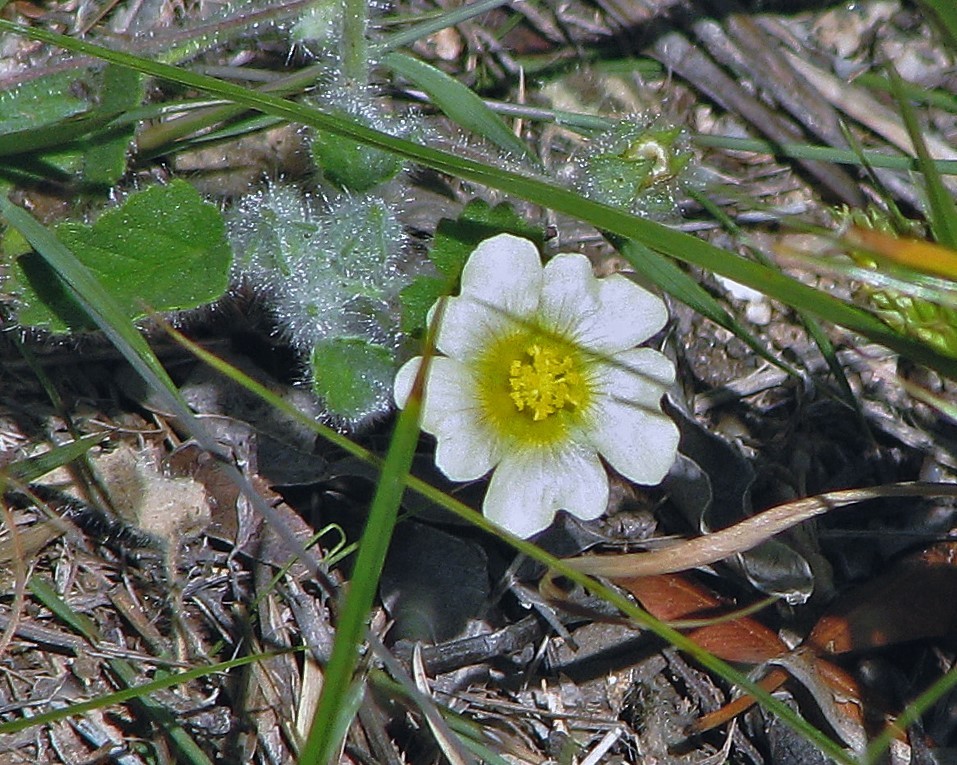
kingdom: Plantae
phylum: Tracheophyta
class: Magnoliopsida
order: Malvales
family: Malvaceae
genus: Sida
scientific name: Sida argentina
